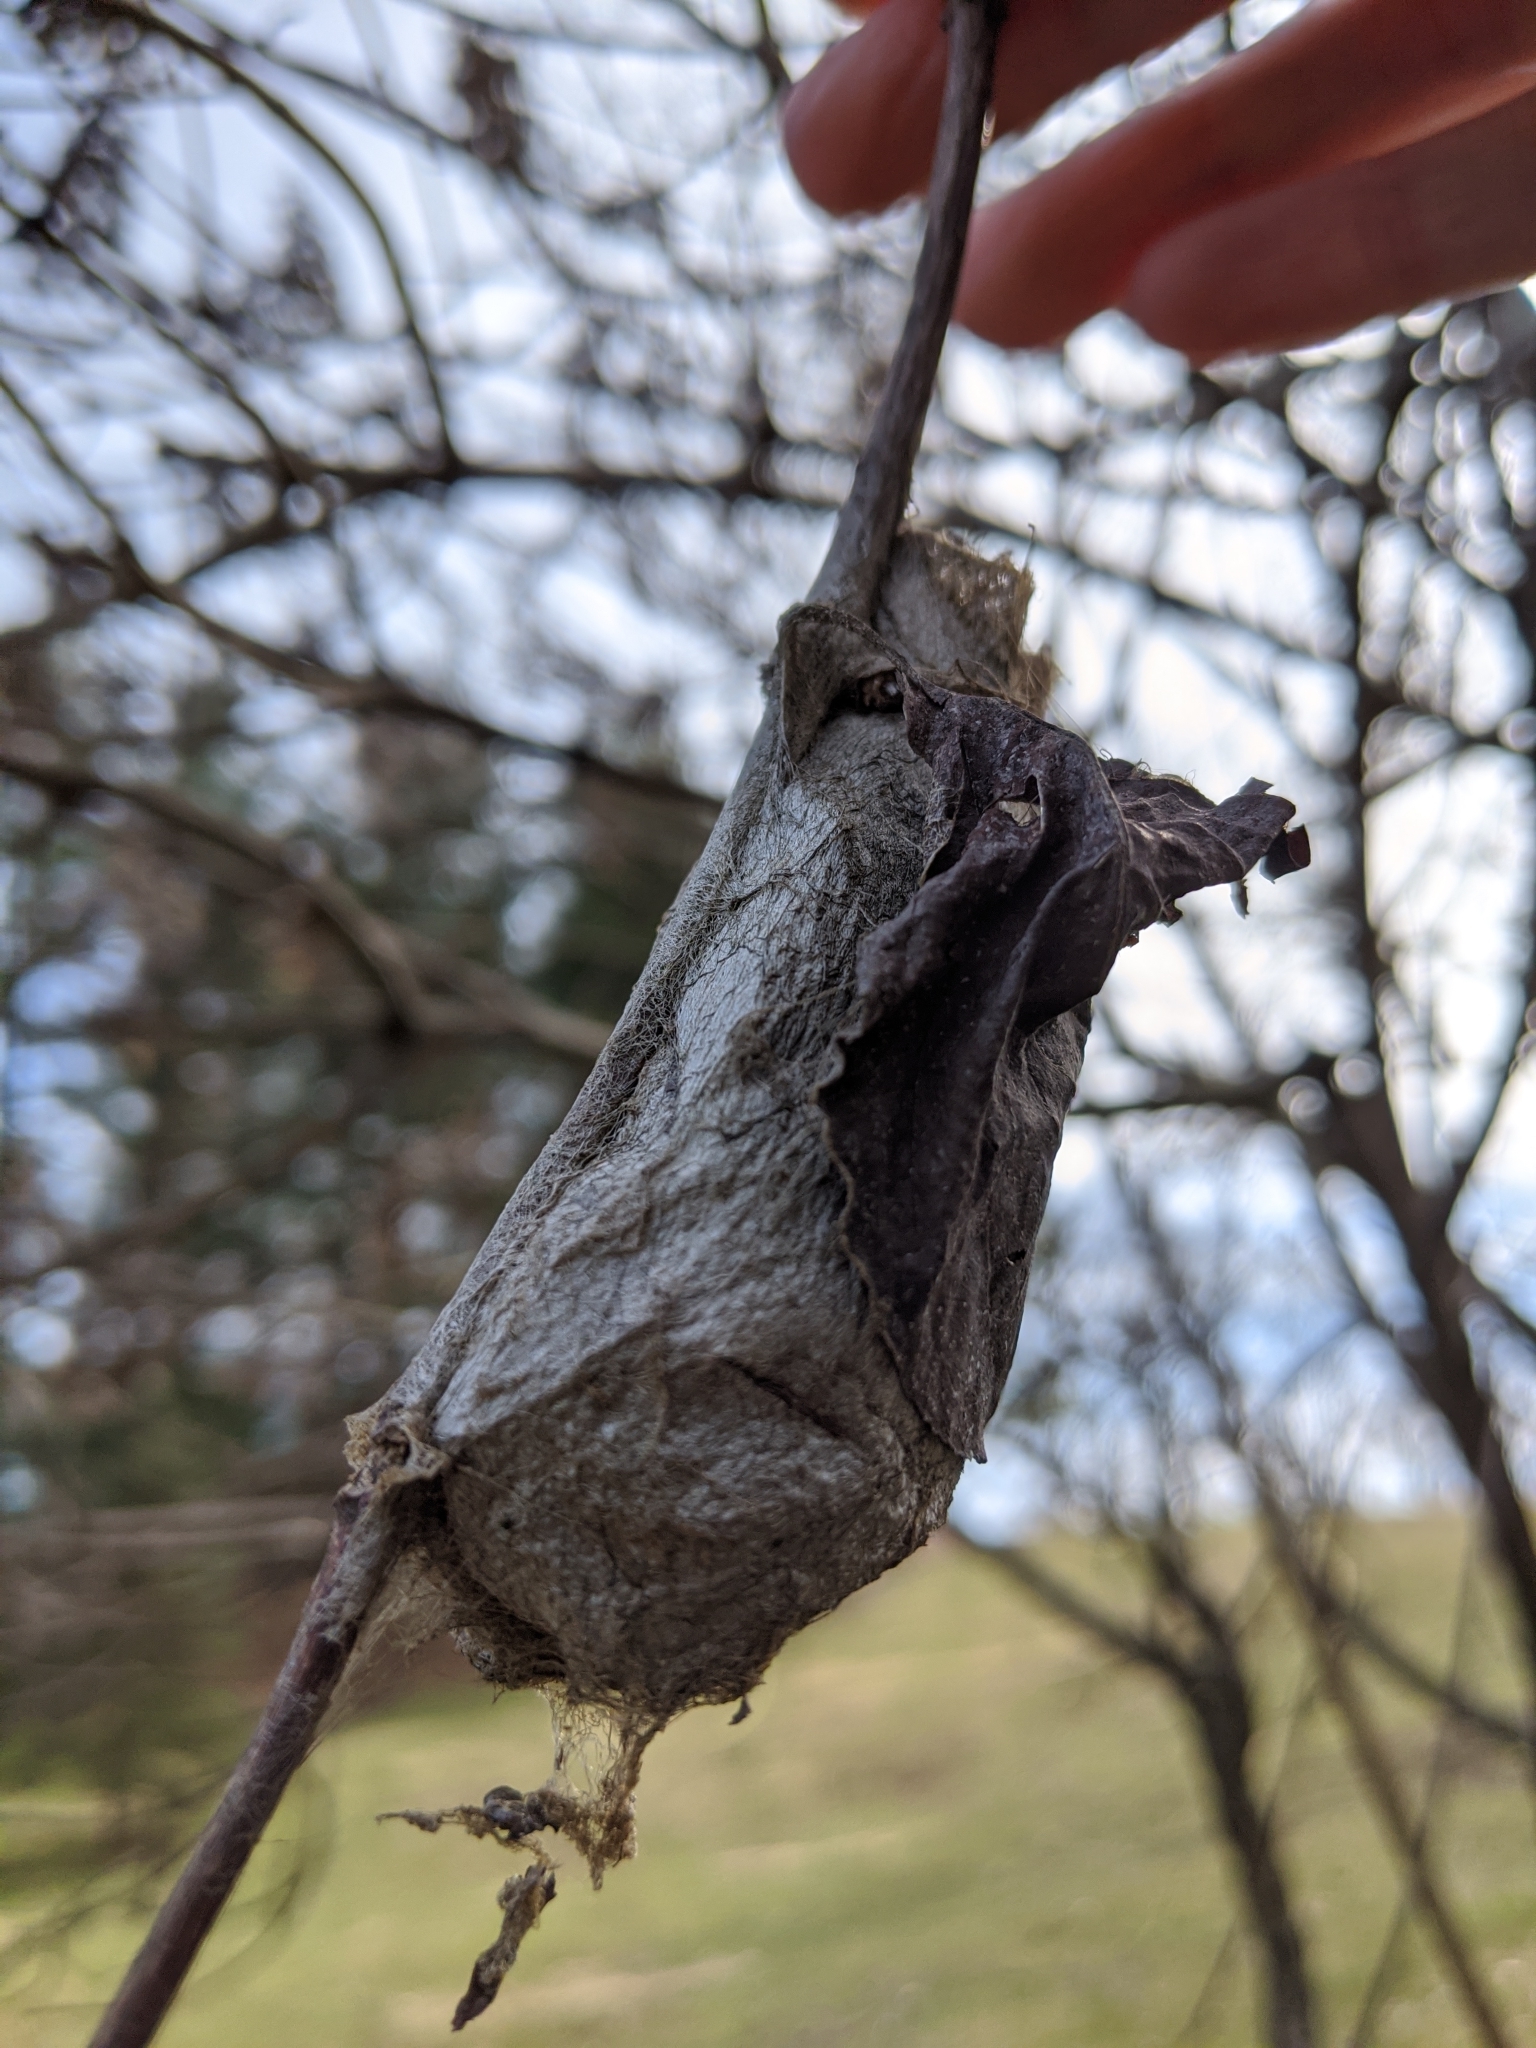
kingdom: Animalia
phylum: Arthropoda
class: Insecta
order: Lepidoptera
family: Saturniidae
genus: Hyalophora
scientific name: Hyalophora cecropia
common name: Cecropia silkmoth
